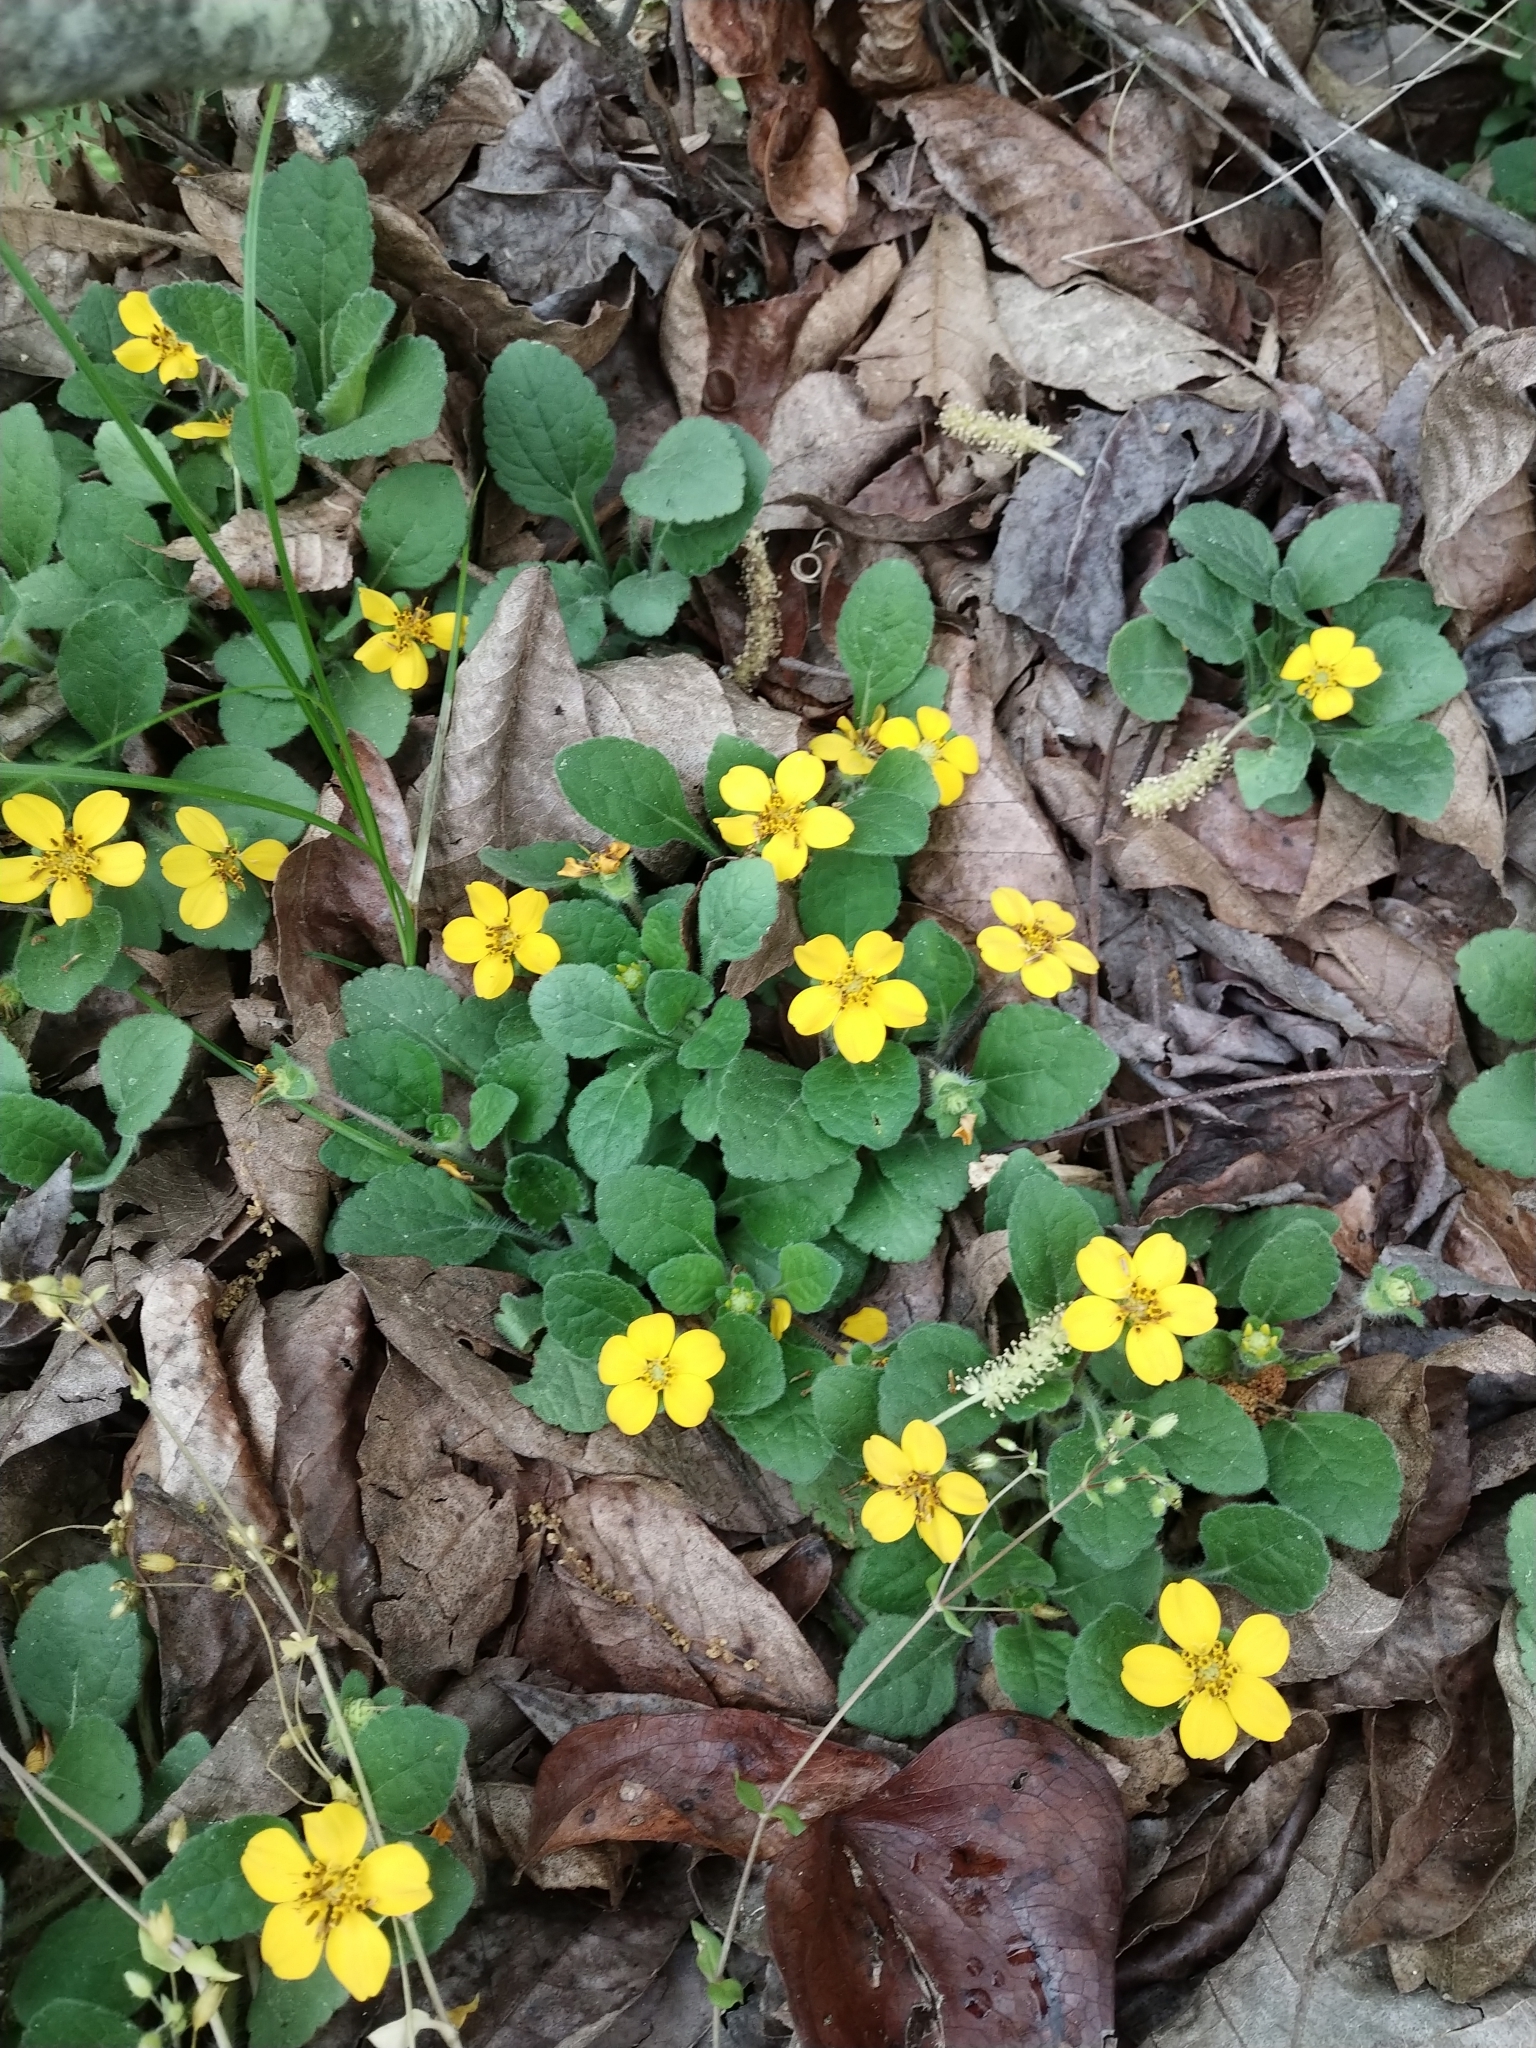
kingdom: Plantae
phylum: Tracheophyta
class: Magnoliopsida
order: Asterales
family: Asteraceae
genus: Chrysogonum
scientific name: Chrysogonum virginianum
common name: Golden-knee
